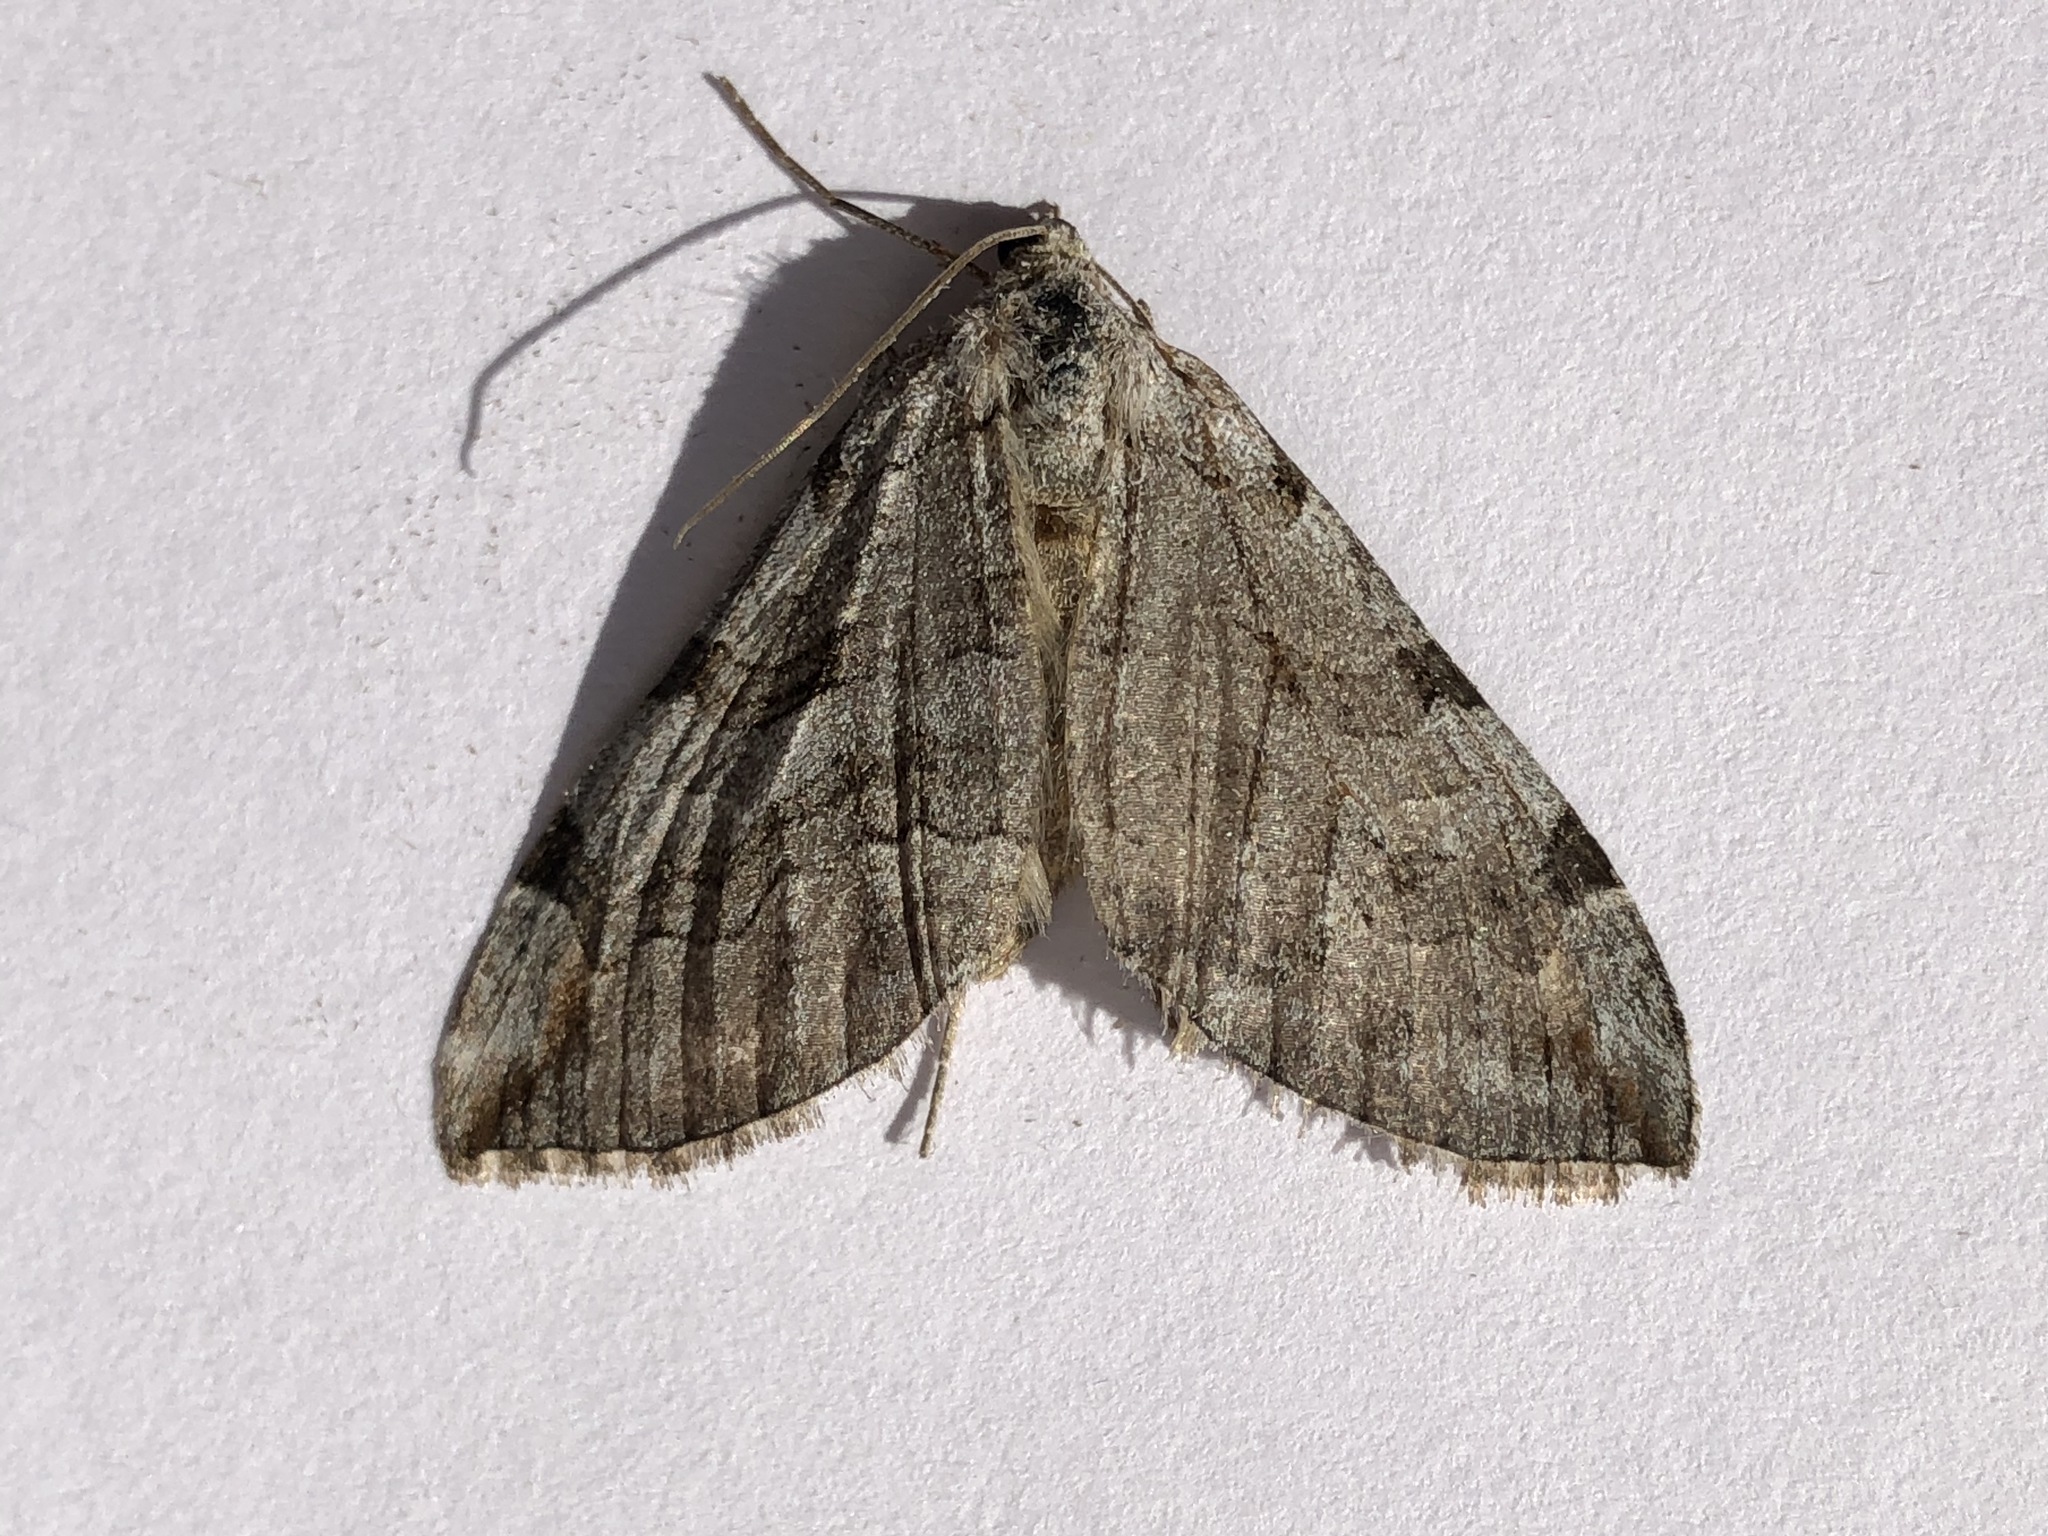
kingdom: Animalia
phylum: Arthropoda
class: Insecta
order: Lepidoptera
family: Geometridae
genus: Aplocera
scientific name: Aplocera plagiata
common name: Treble-bar
